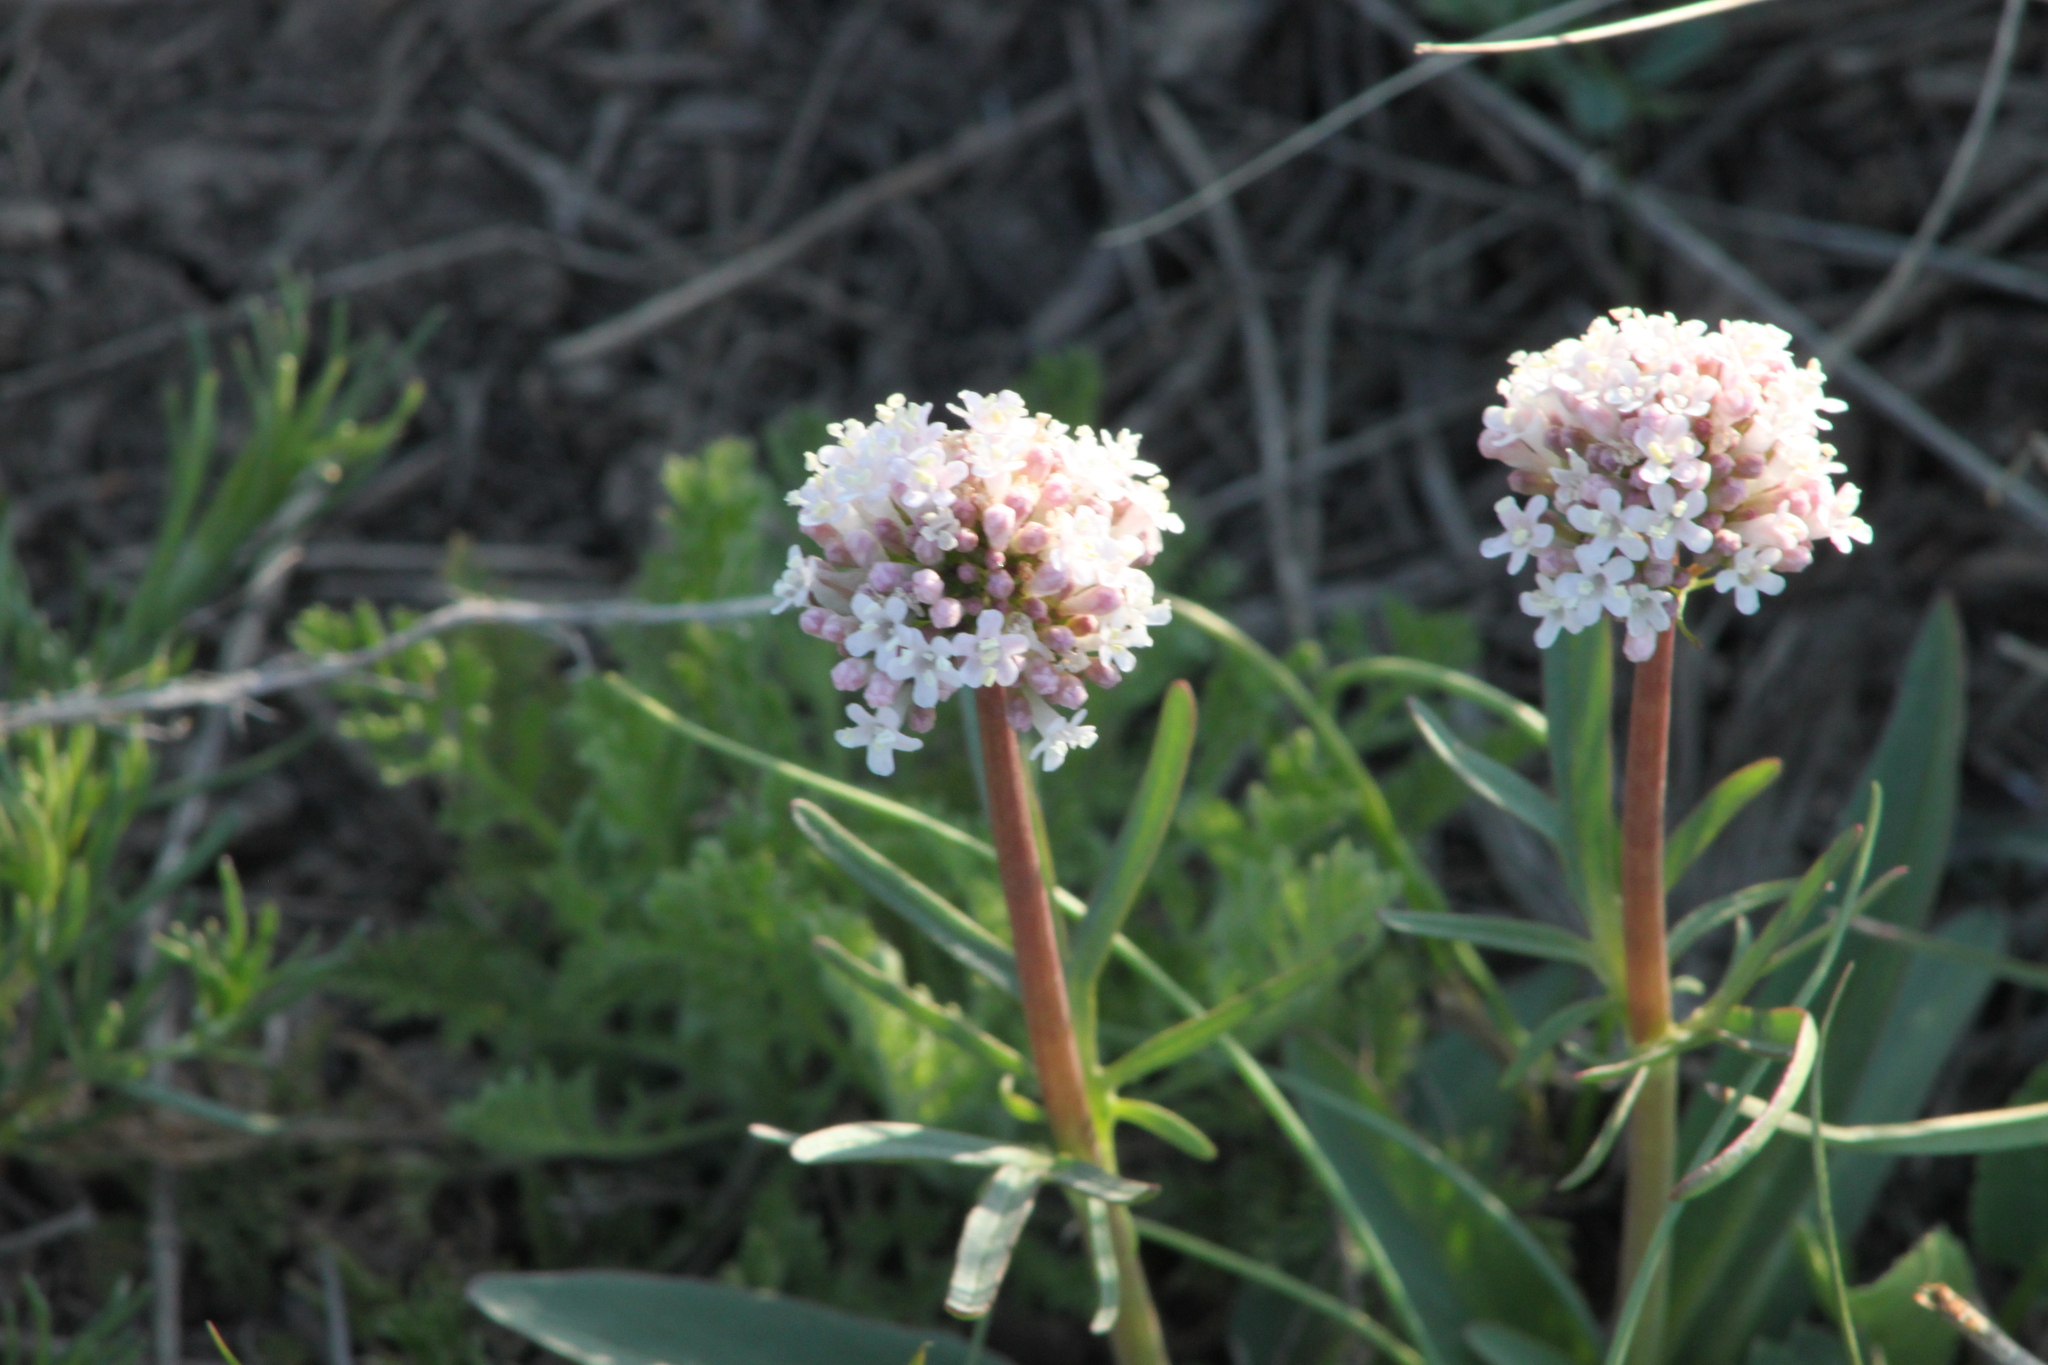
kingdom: Plantae
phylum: Tracheophyta
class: Magnoliopsida
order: Dipsacales
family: Caprifoliaceae
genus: Valeriana
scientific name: Valeriana tuberosa
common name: Tuberous valerian
